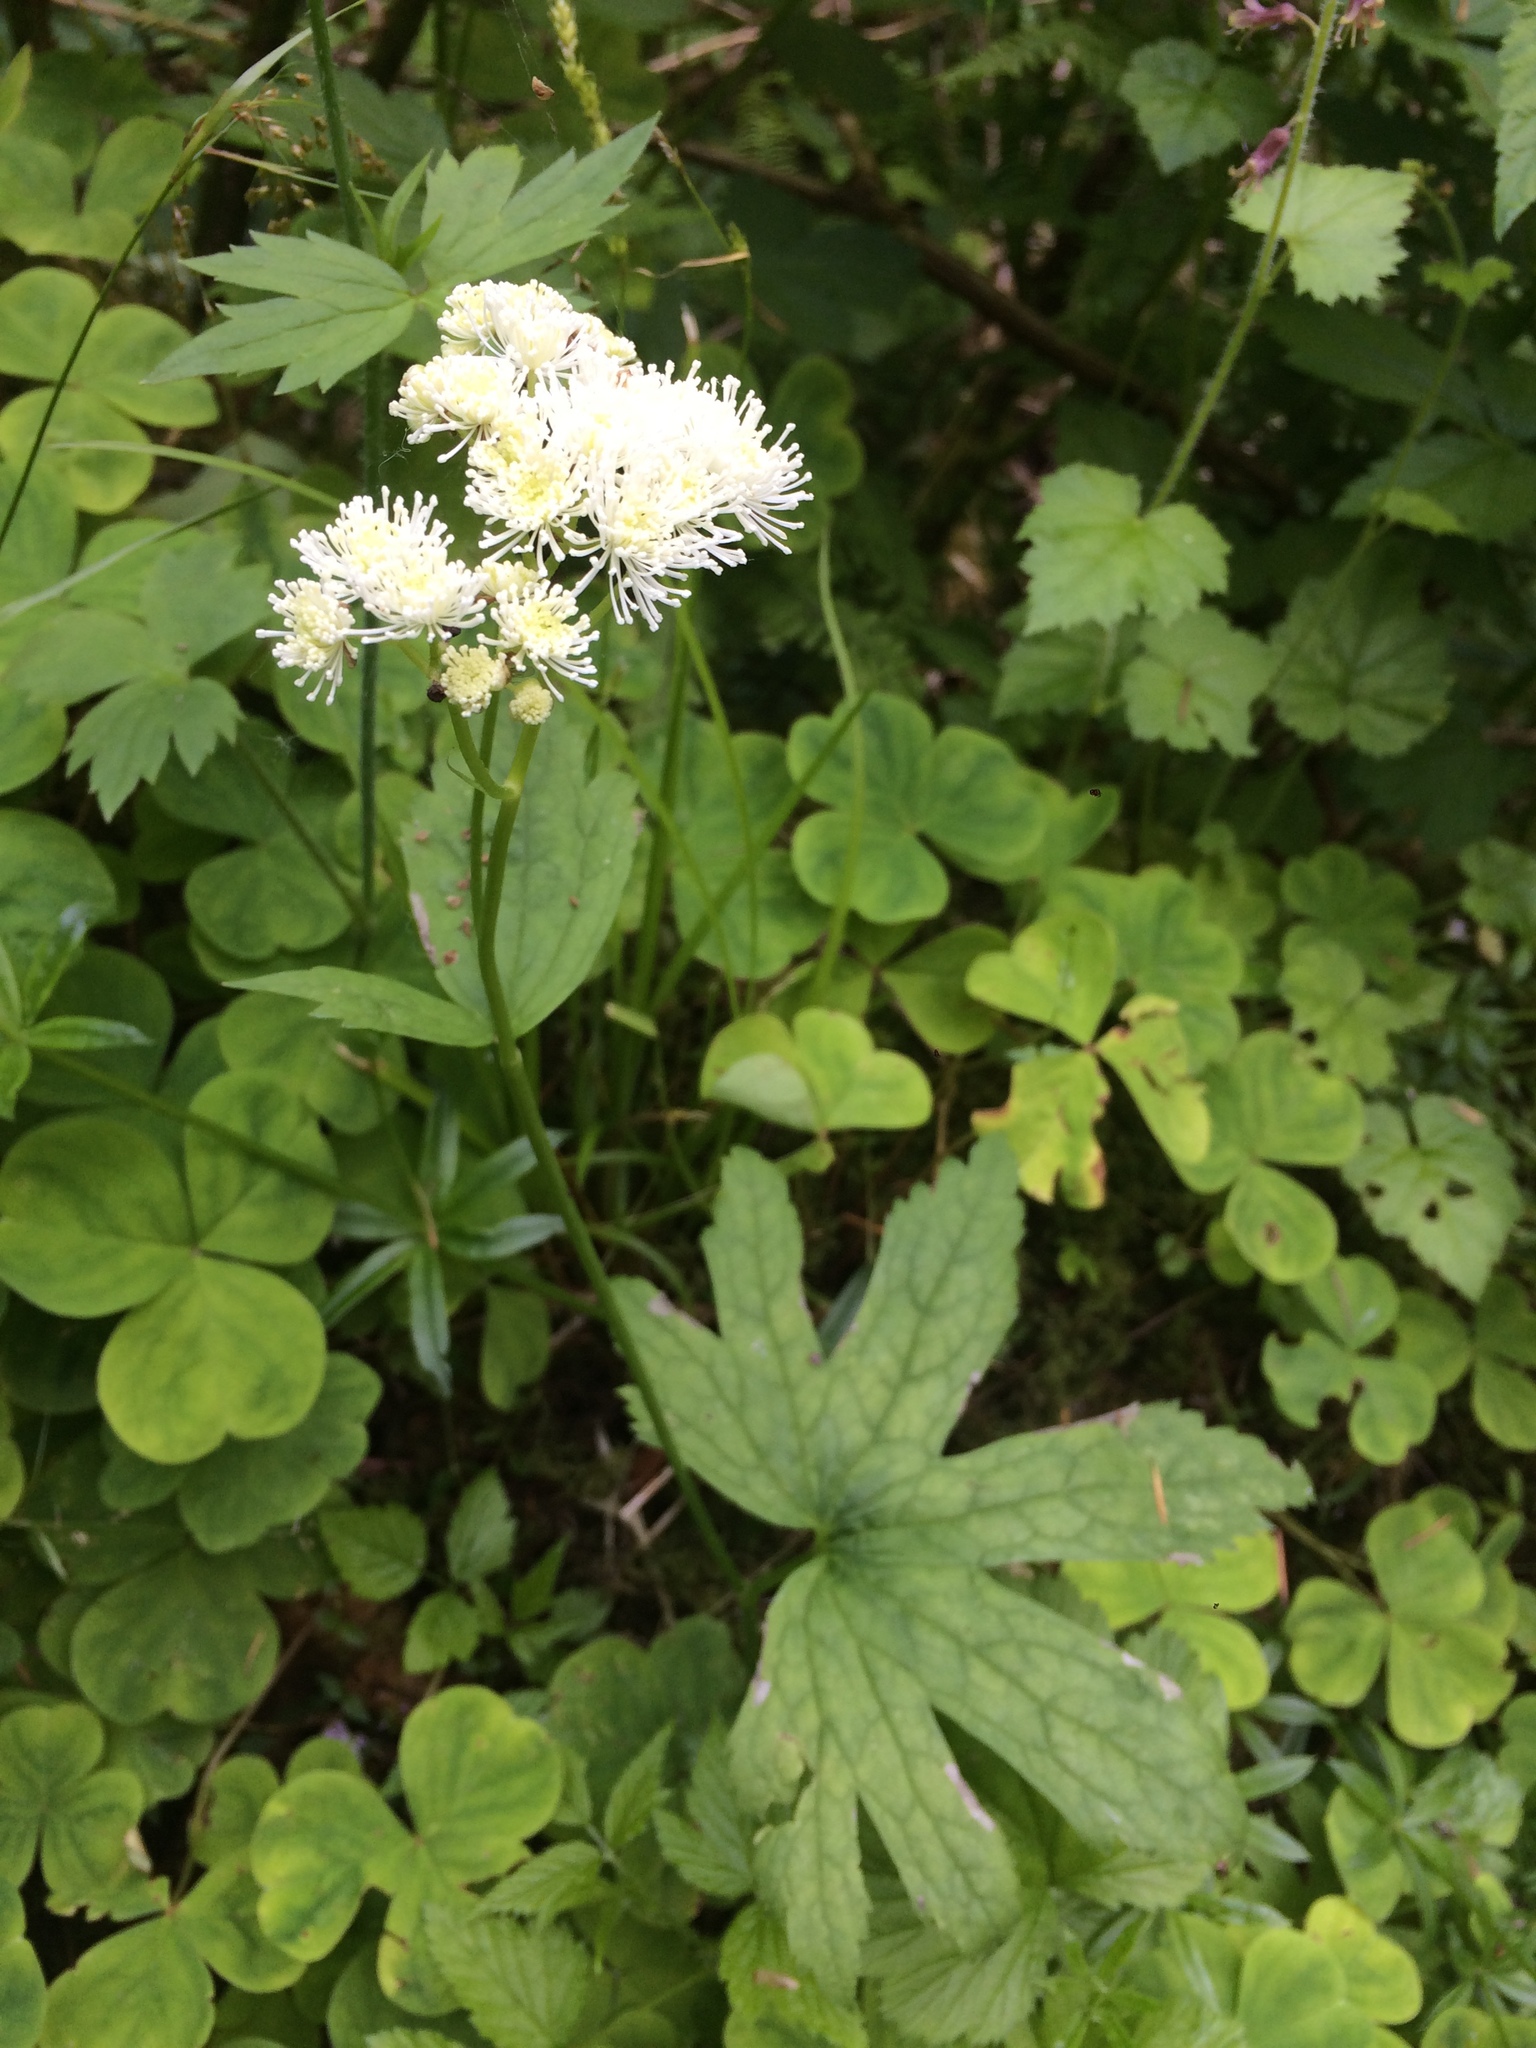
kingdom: Plantae
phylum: Tracheophyta
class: Magnoliopsida
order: Ranunculales
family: Ranunculaceae
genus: Trautvetteria
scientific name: Trautvetteria carolinensis
